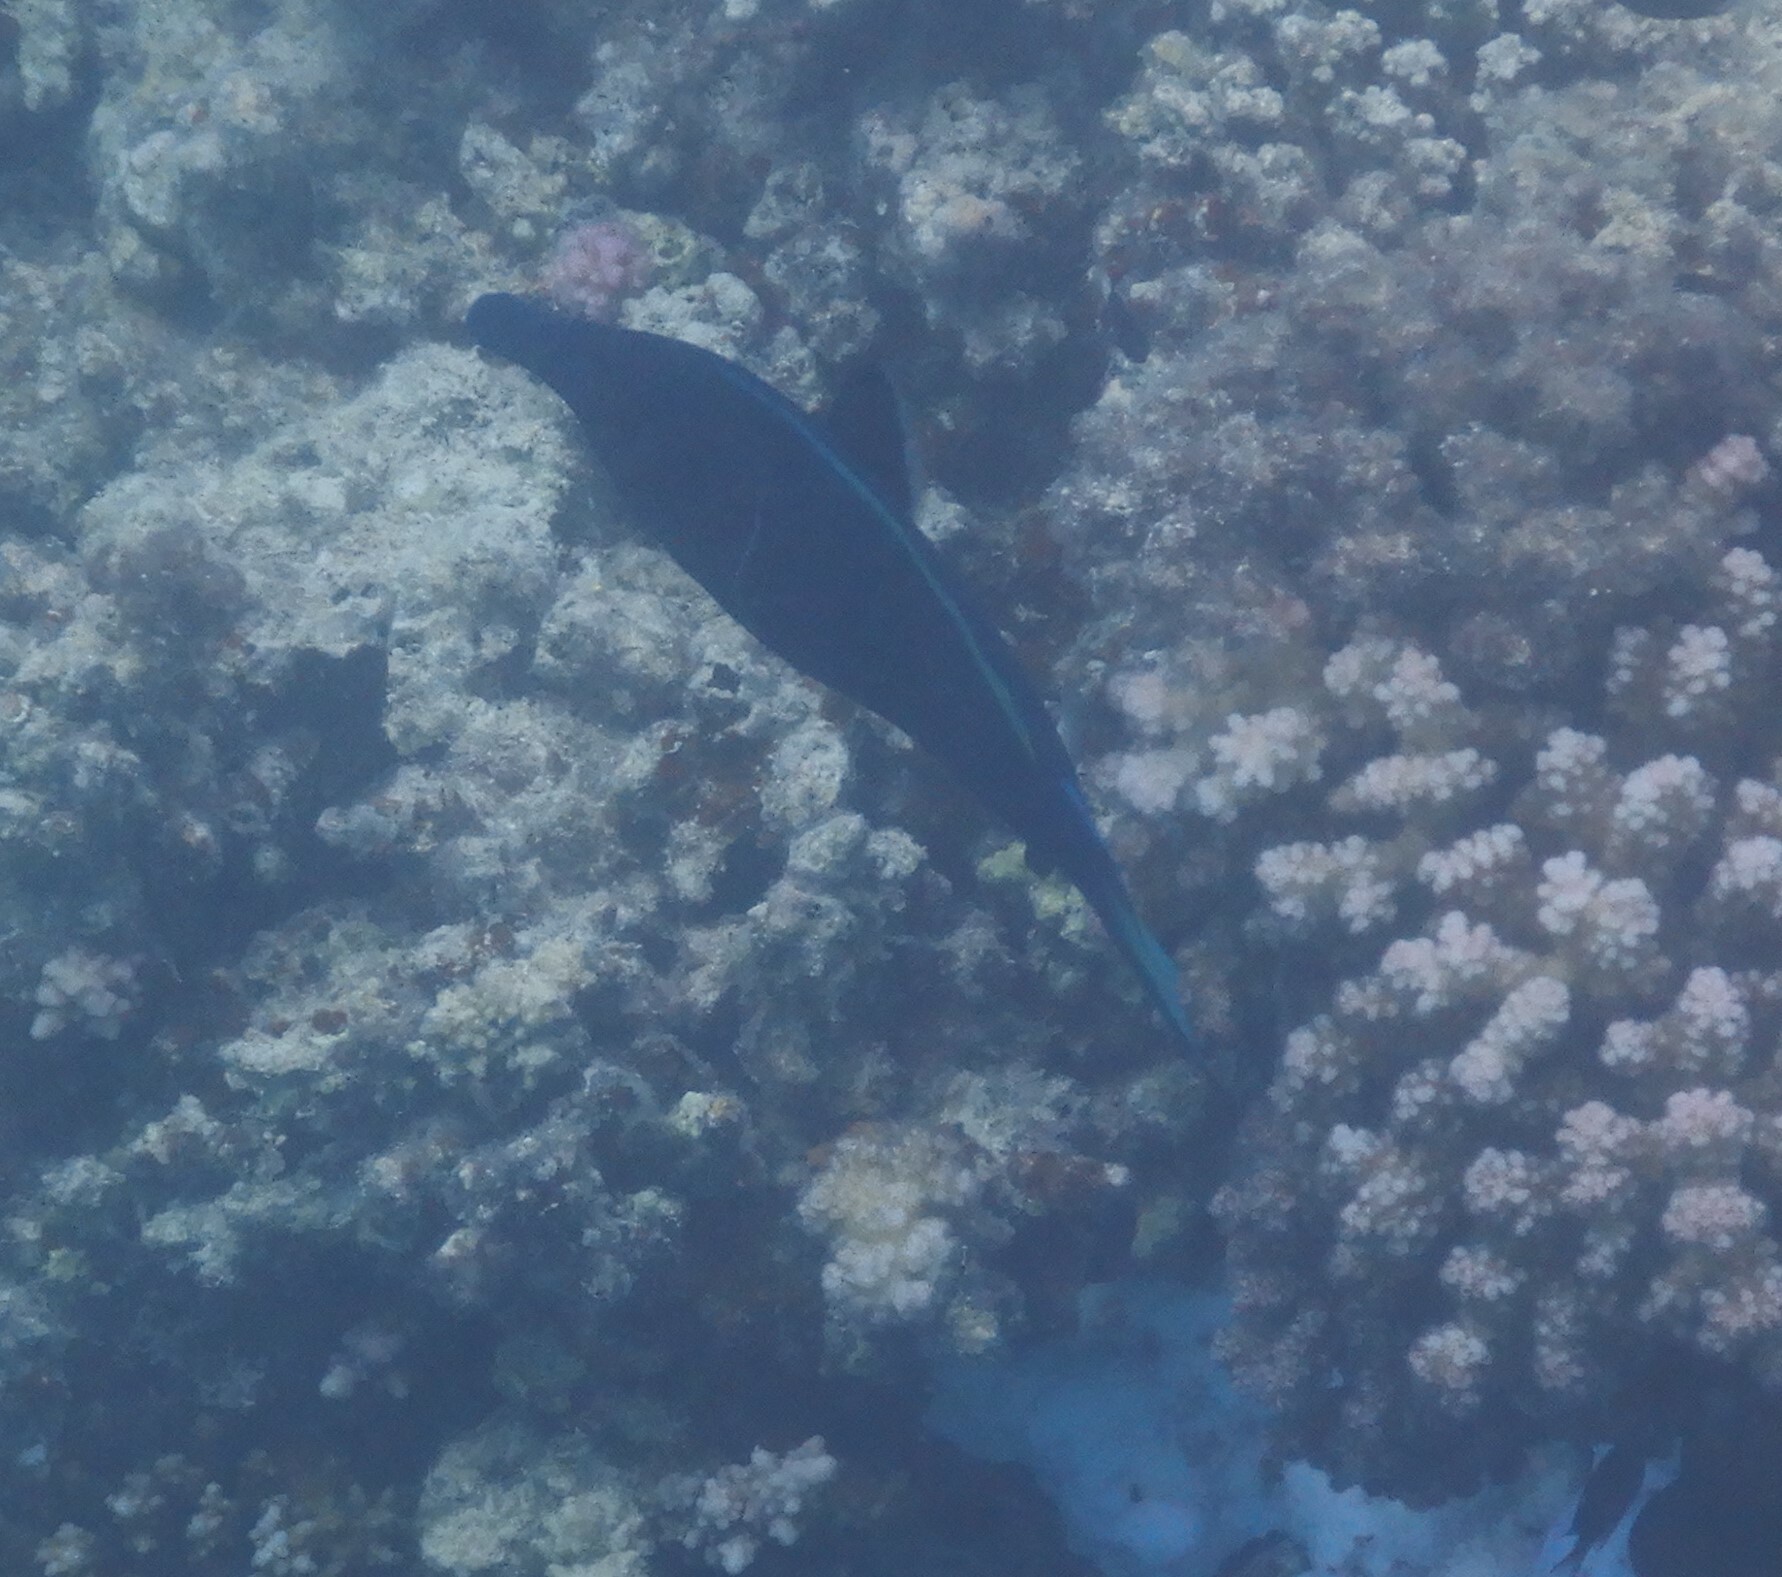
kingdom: Animalia
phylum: Chordata
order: Perciformes
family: Labridae
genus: Gomphosus
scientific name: Gomphosus klunzingeri
